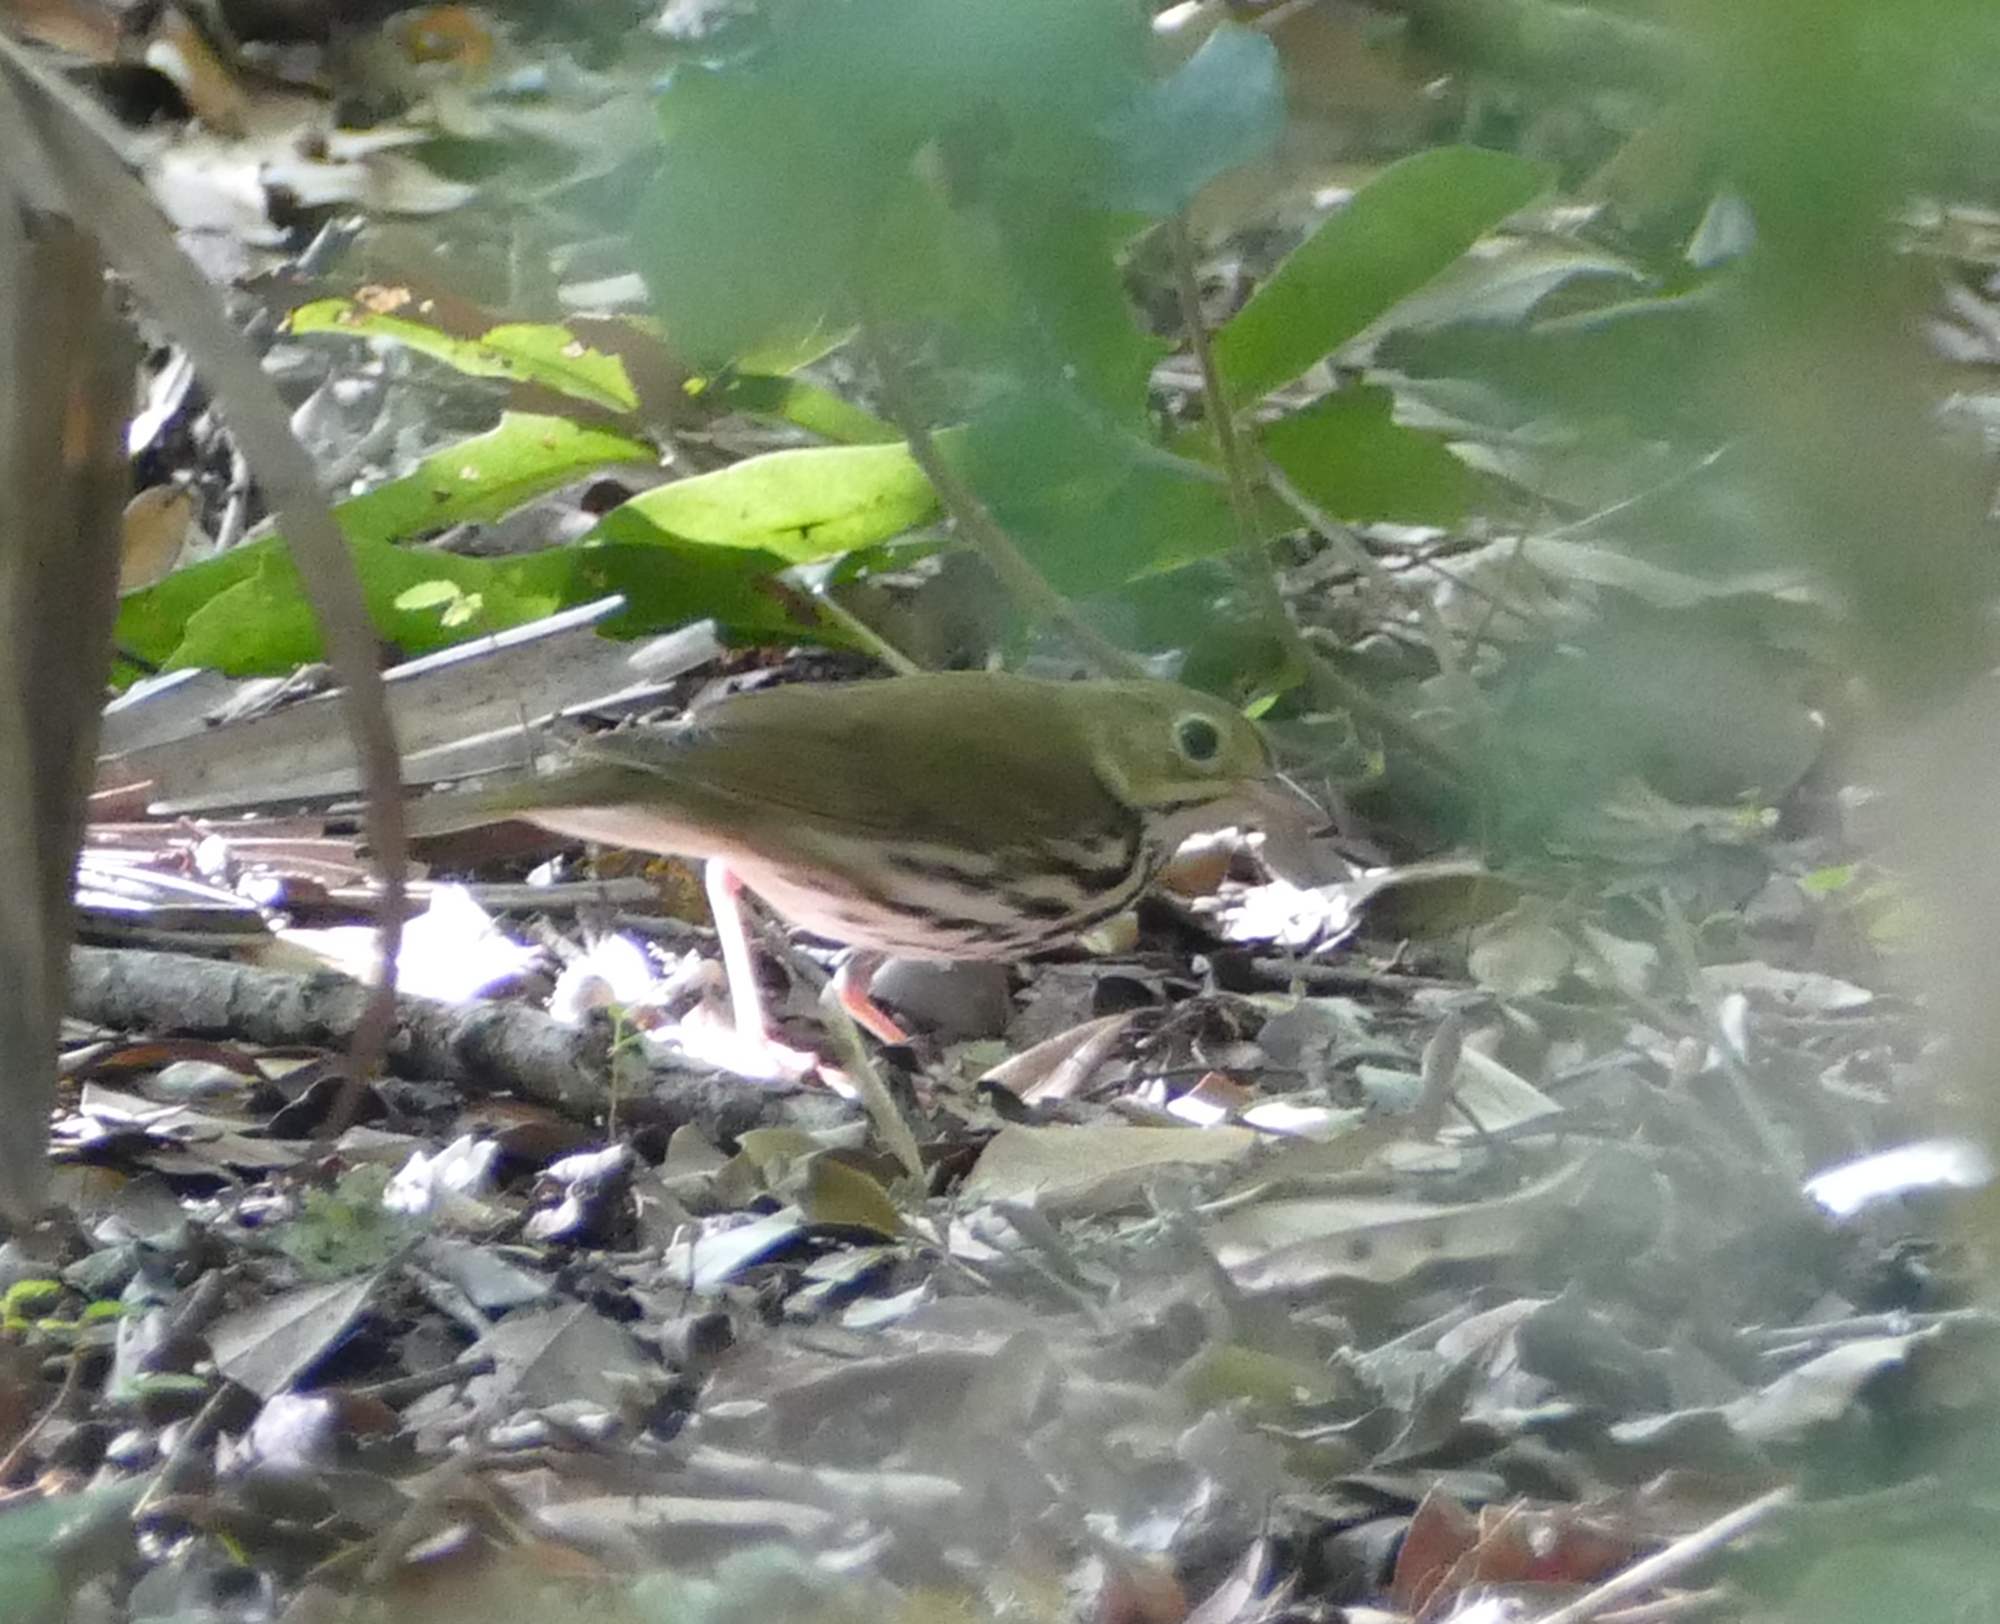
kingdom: Animalia
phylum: Chordata
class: Aves
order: Passeriformes
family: Parulidae
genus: Seiurus
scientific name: Seiurus aurocapilla
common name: Ovenbird
